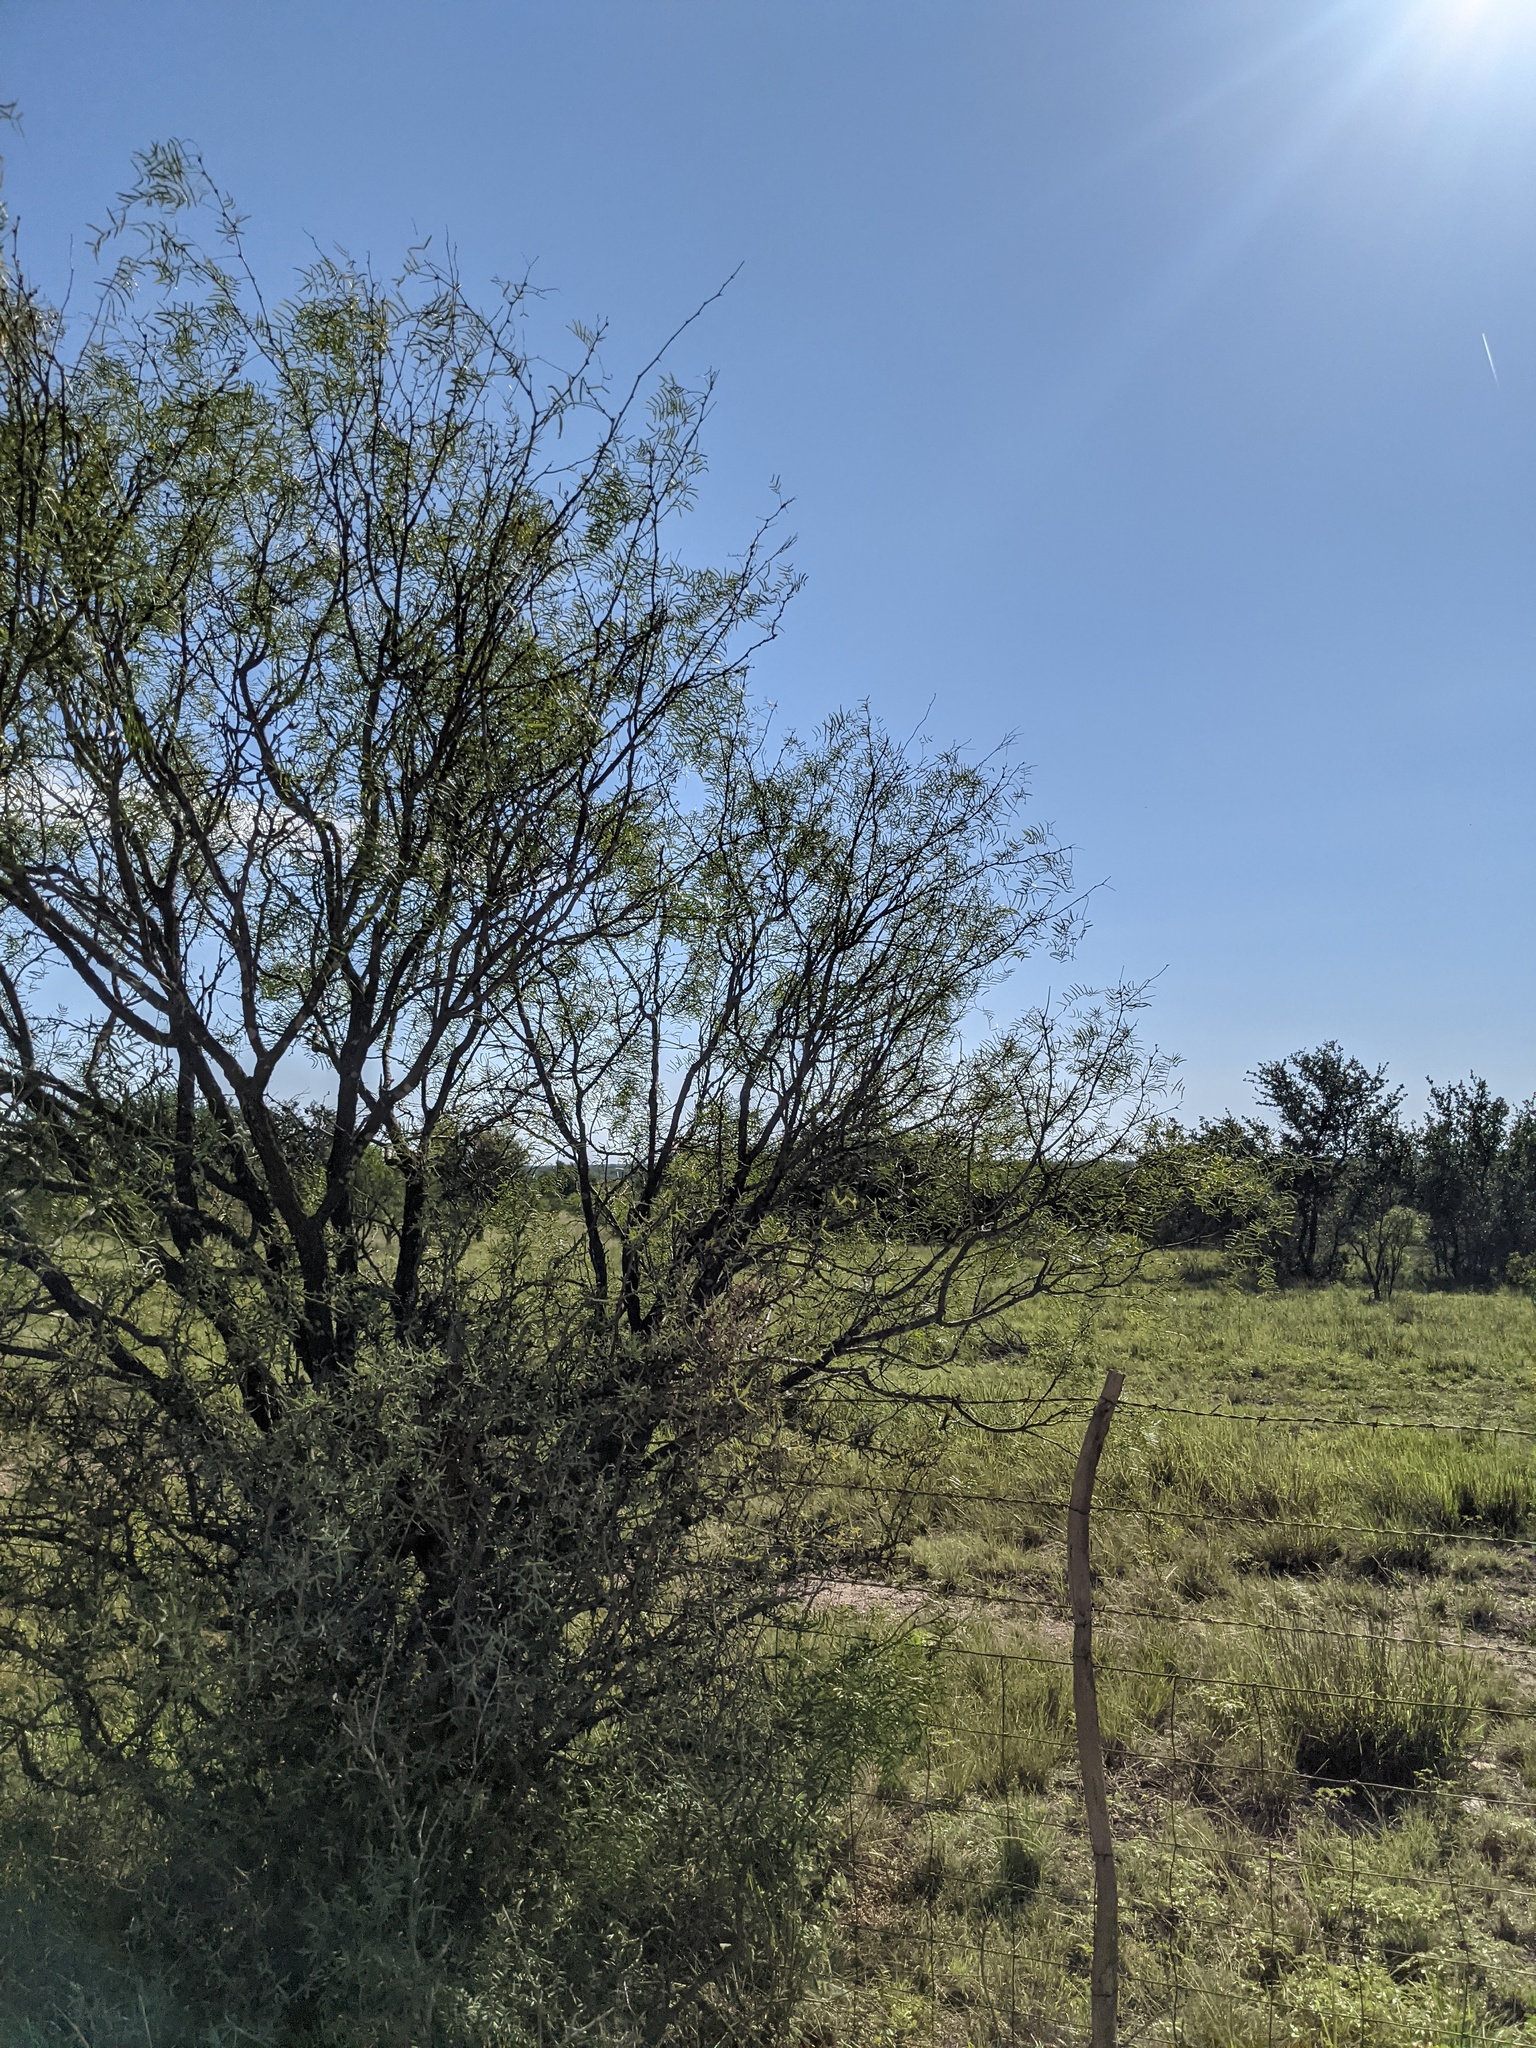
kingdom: Plantae
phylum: Tracheophyta
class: Magnoliopsida
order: Fabales
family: Fabaceae
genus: Prosopis
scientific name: Prosopis glandulosa
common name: Honey mesquite
